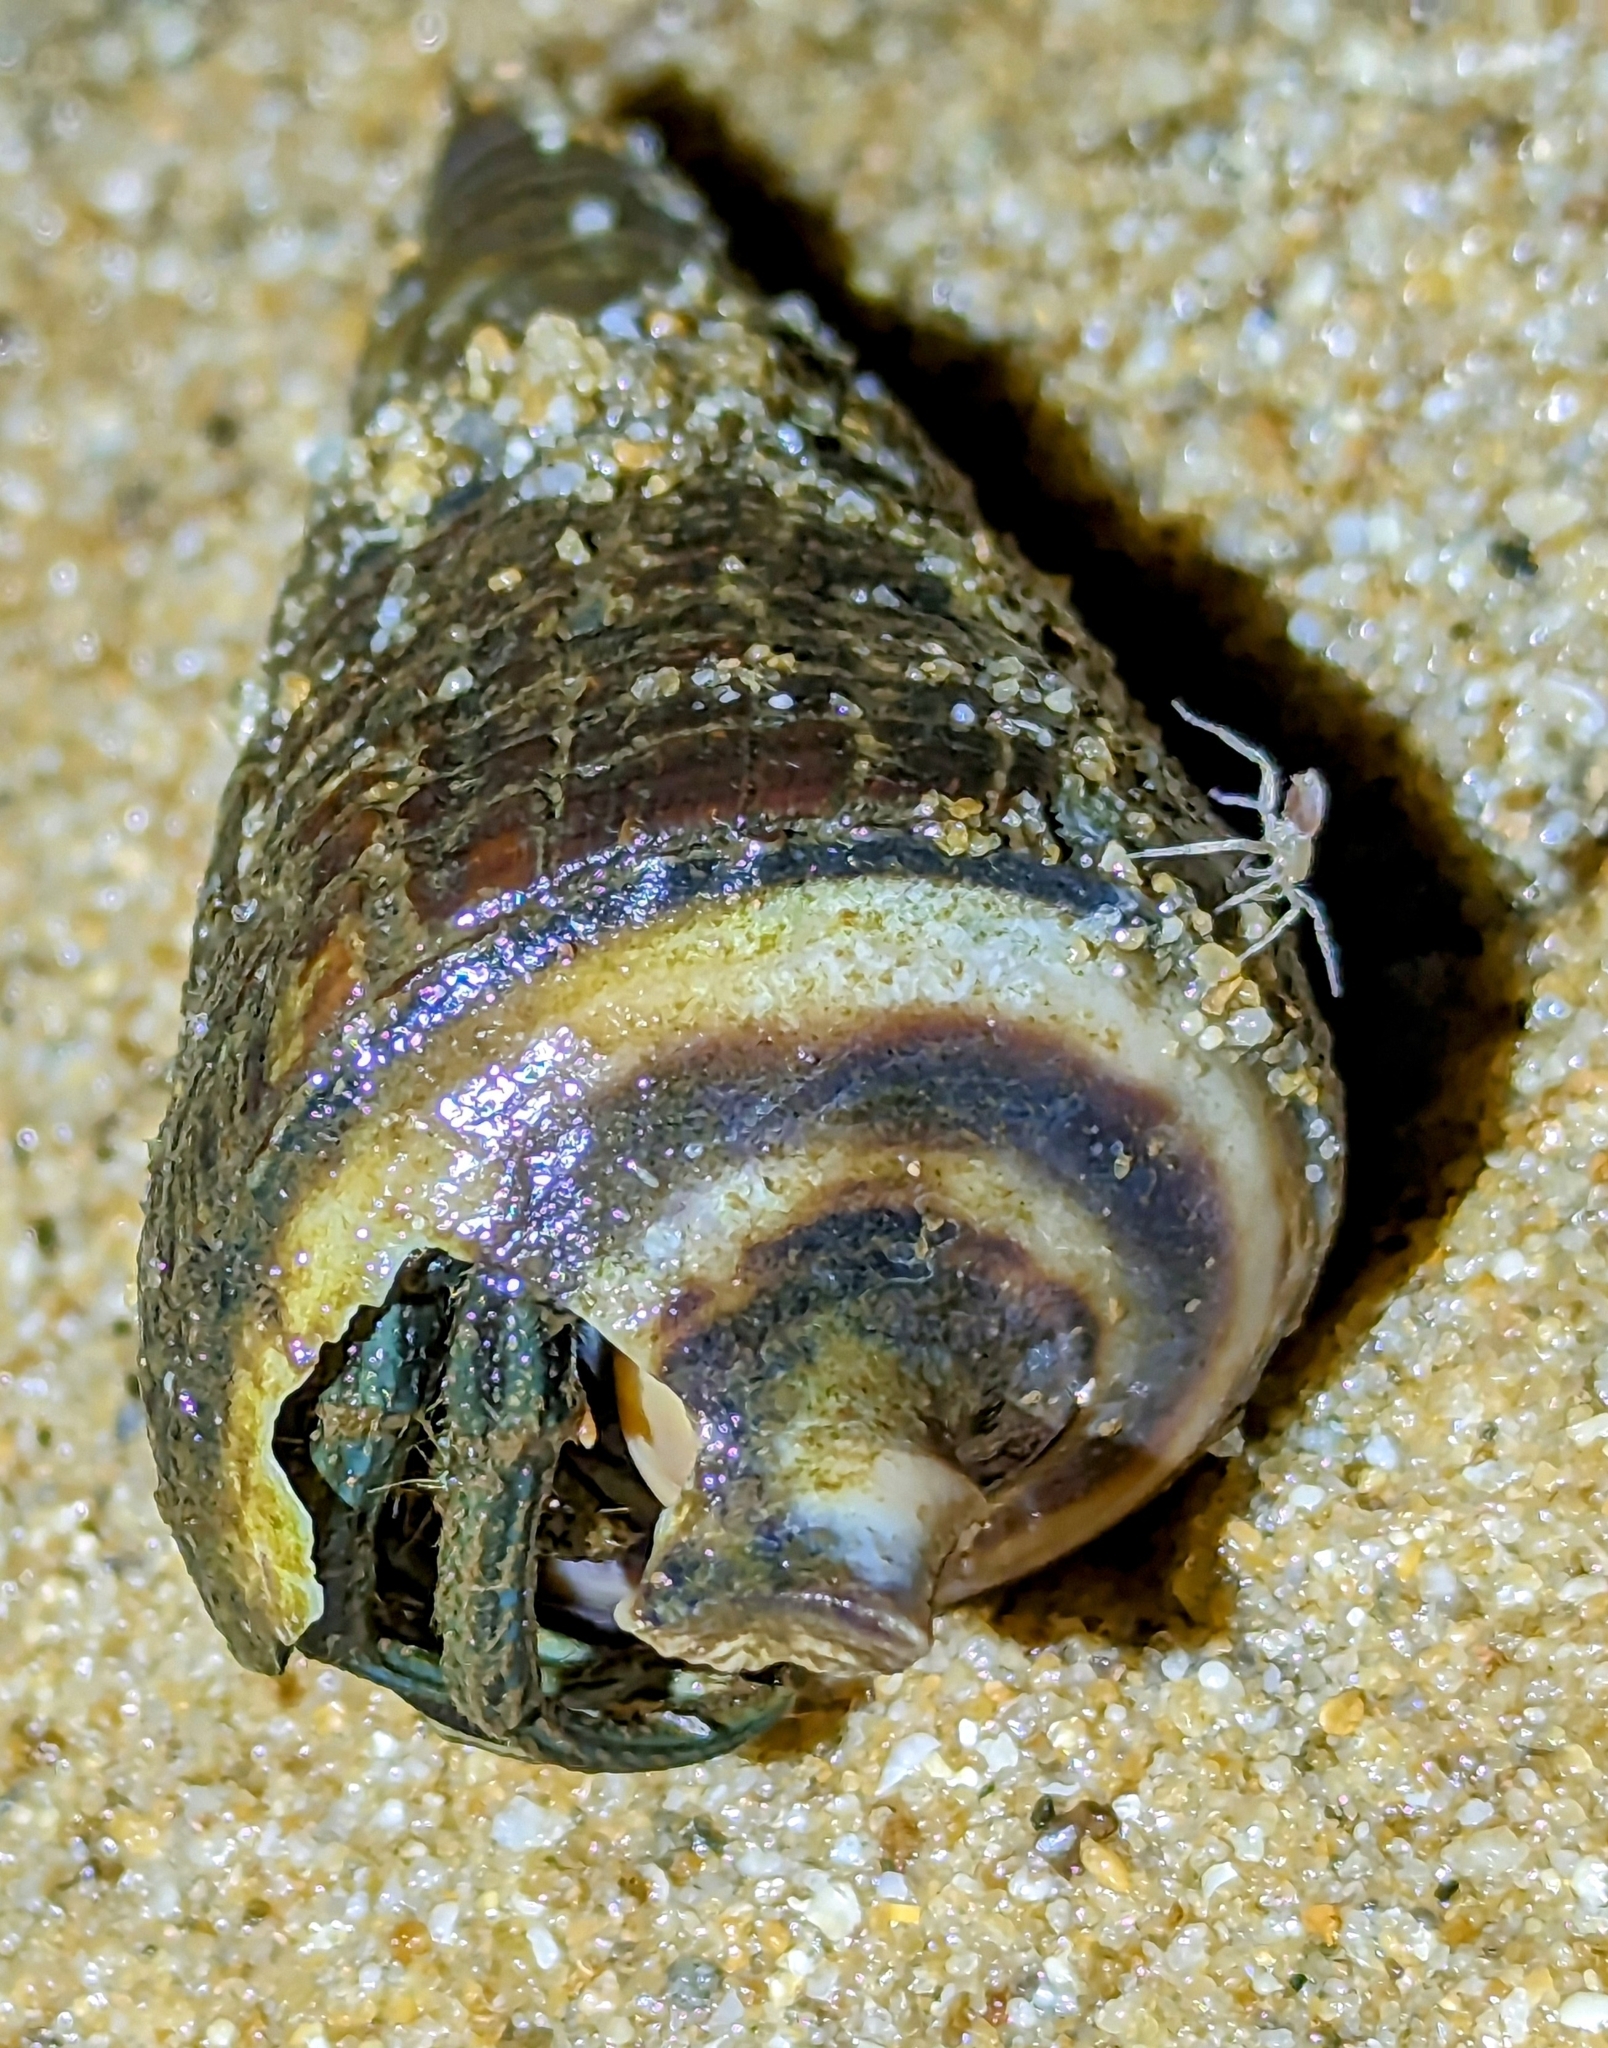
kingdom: Animalia
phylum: Arthropoda
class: Malacostraca
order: Decapoda
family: Diogenidae
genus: Clibanarius
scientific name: Clibanarius longitarsus
